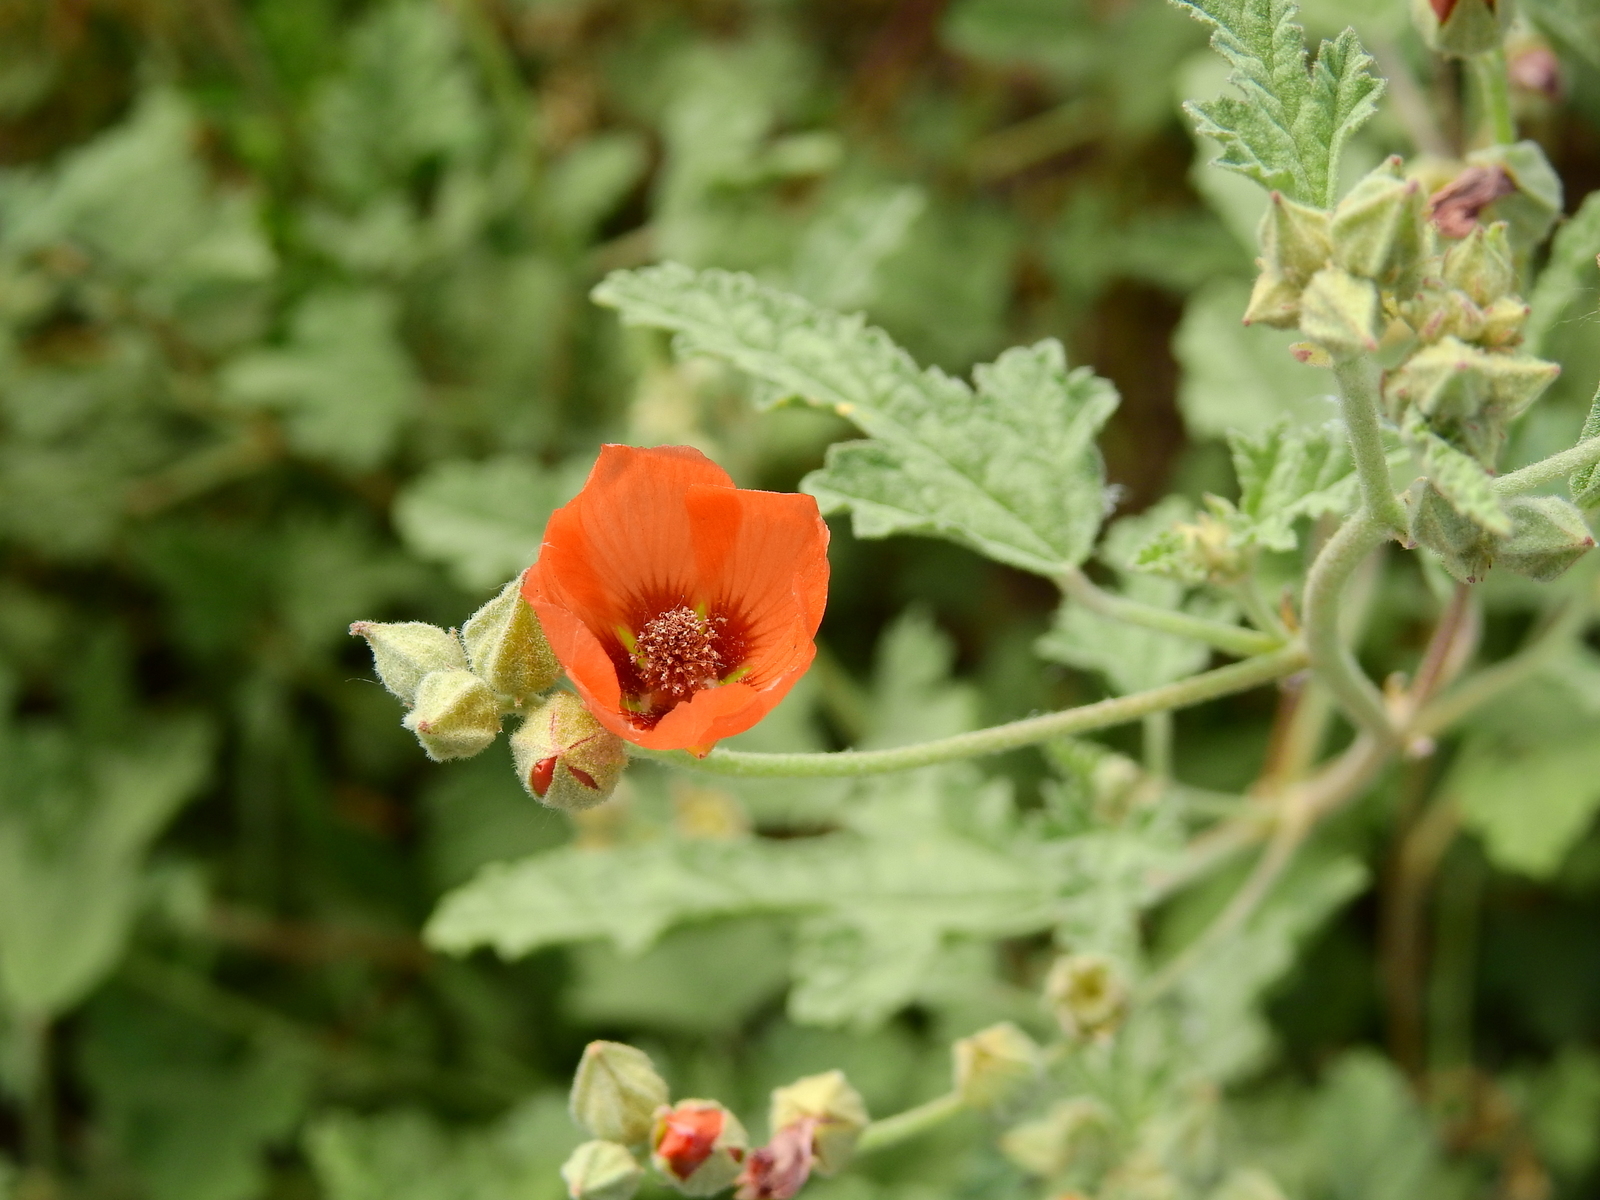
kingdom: Plantae
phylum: Tracheophyta
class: Magnoliopsida
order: Malvales
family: Malvaceae
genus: Sphaeralcea
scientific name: Sphaeralcea miniata
